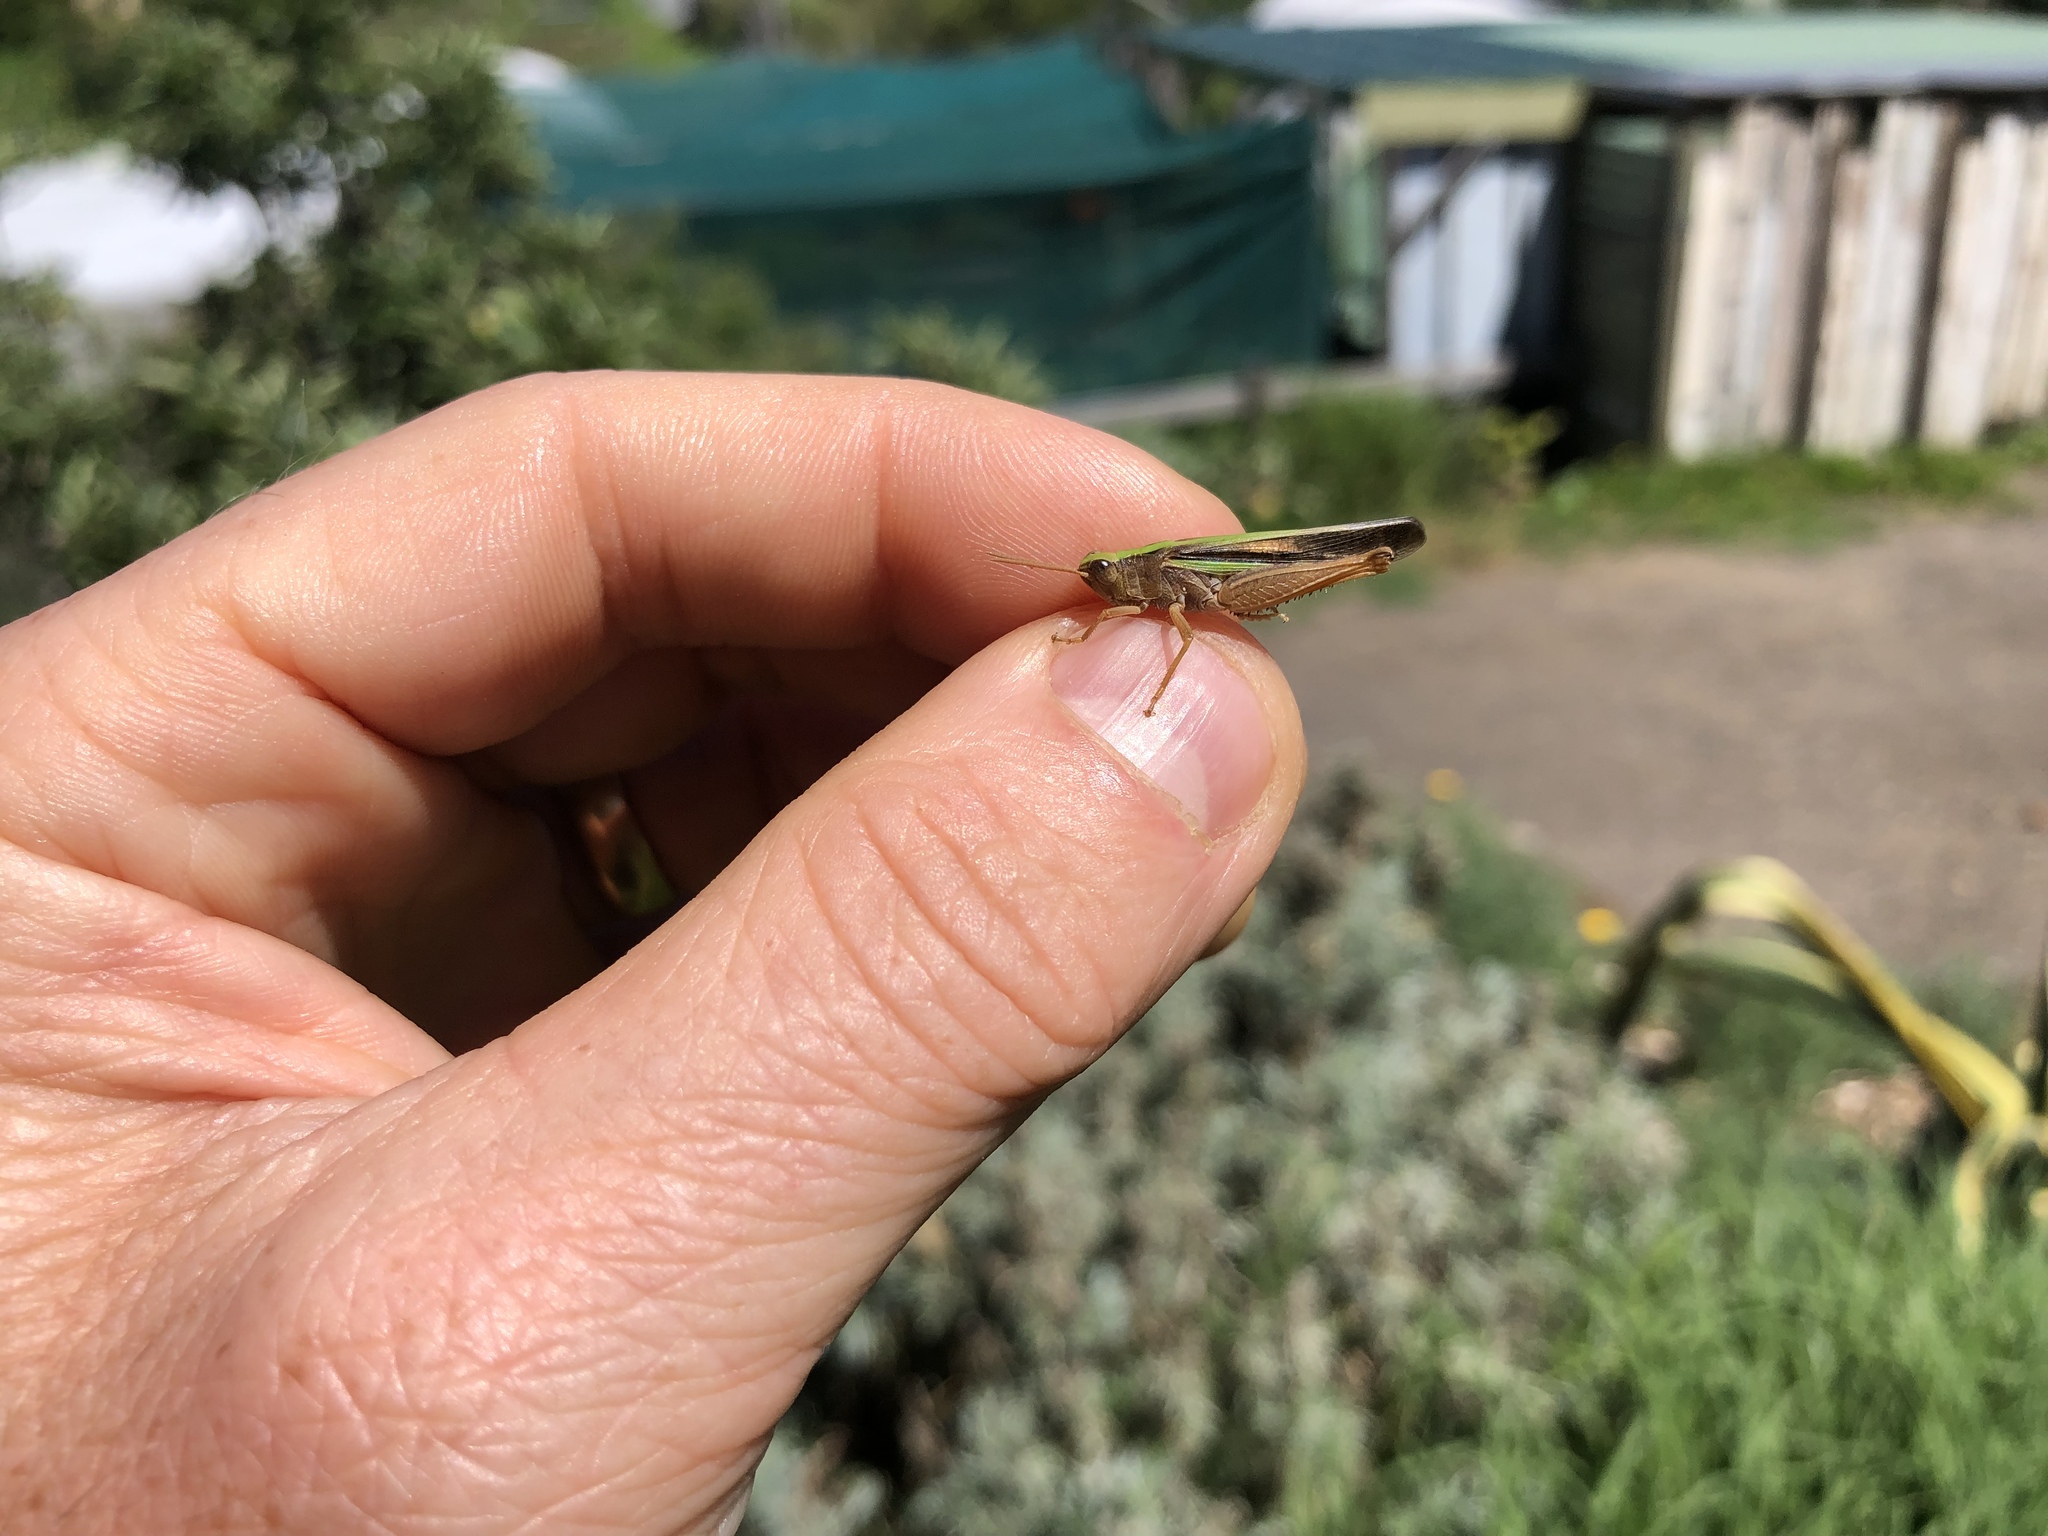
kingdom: Animalia
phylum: Arthropoda
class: Insecta
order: Orthoptera
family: Acrididae
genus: Schizobothrus
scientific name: Schizobothrus flavovittatus
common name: Disappearing grasshopper
